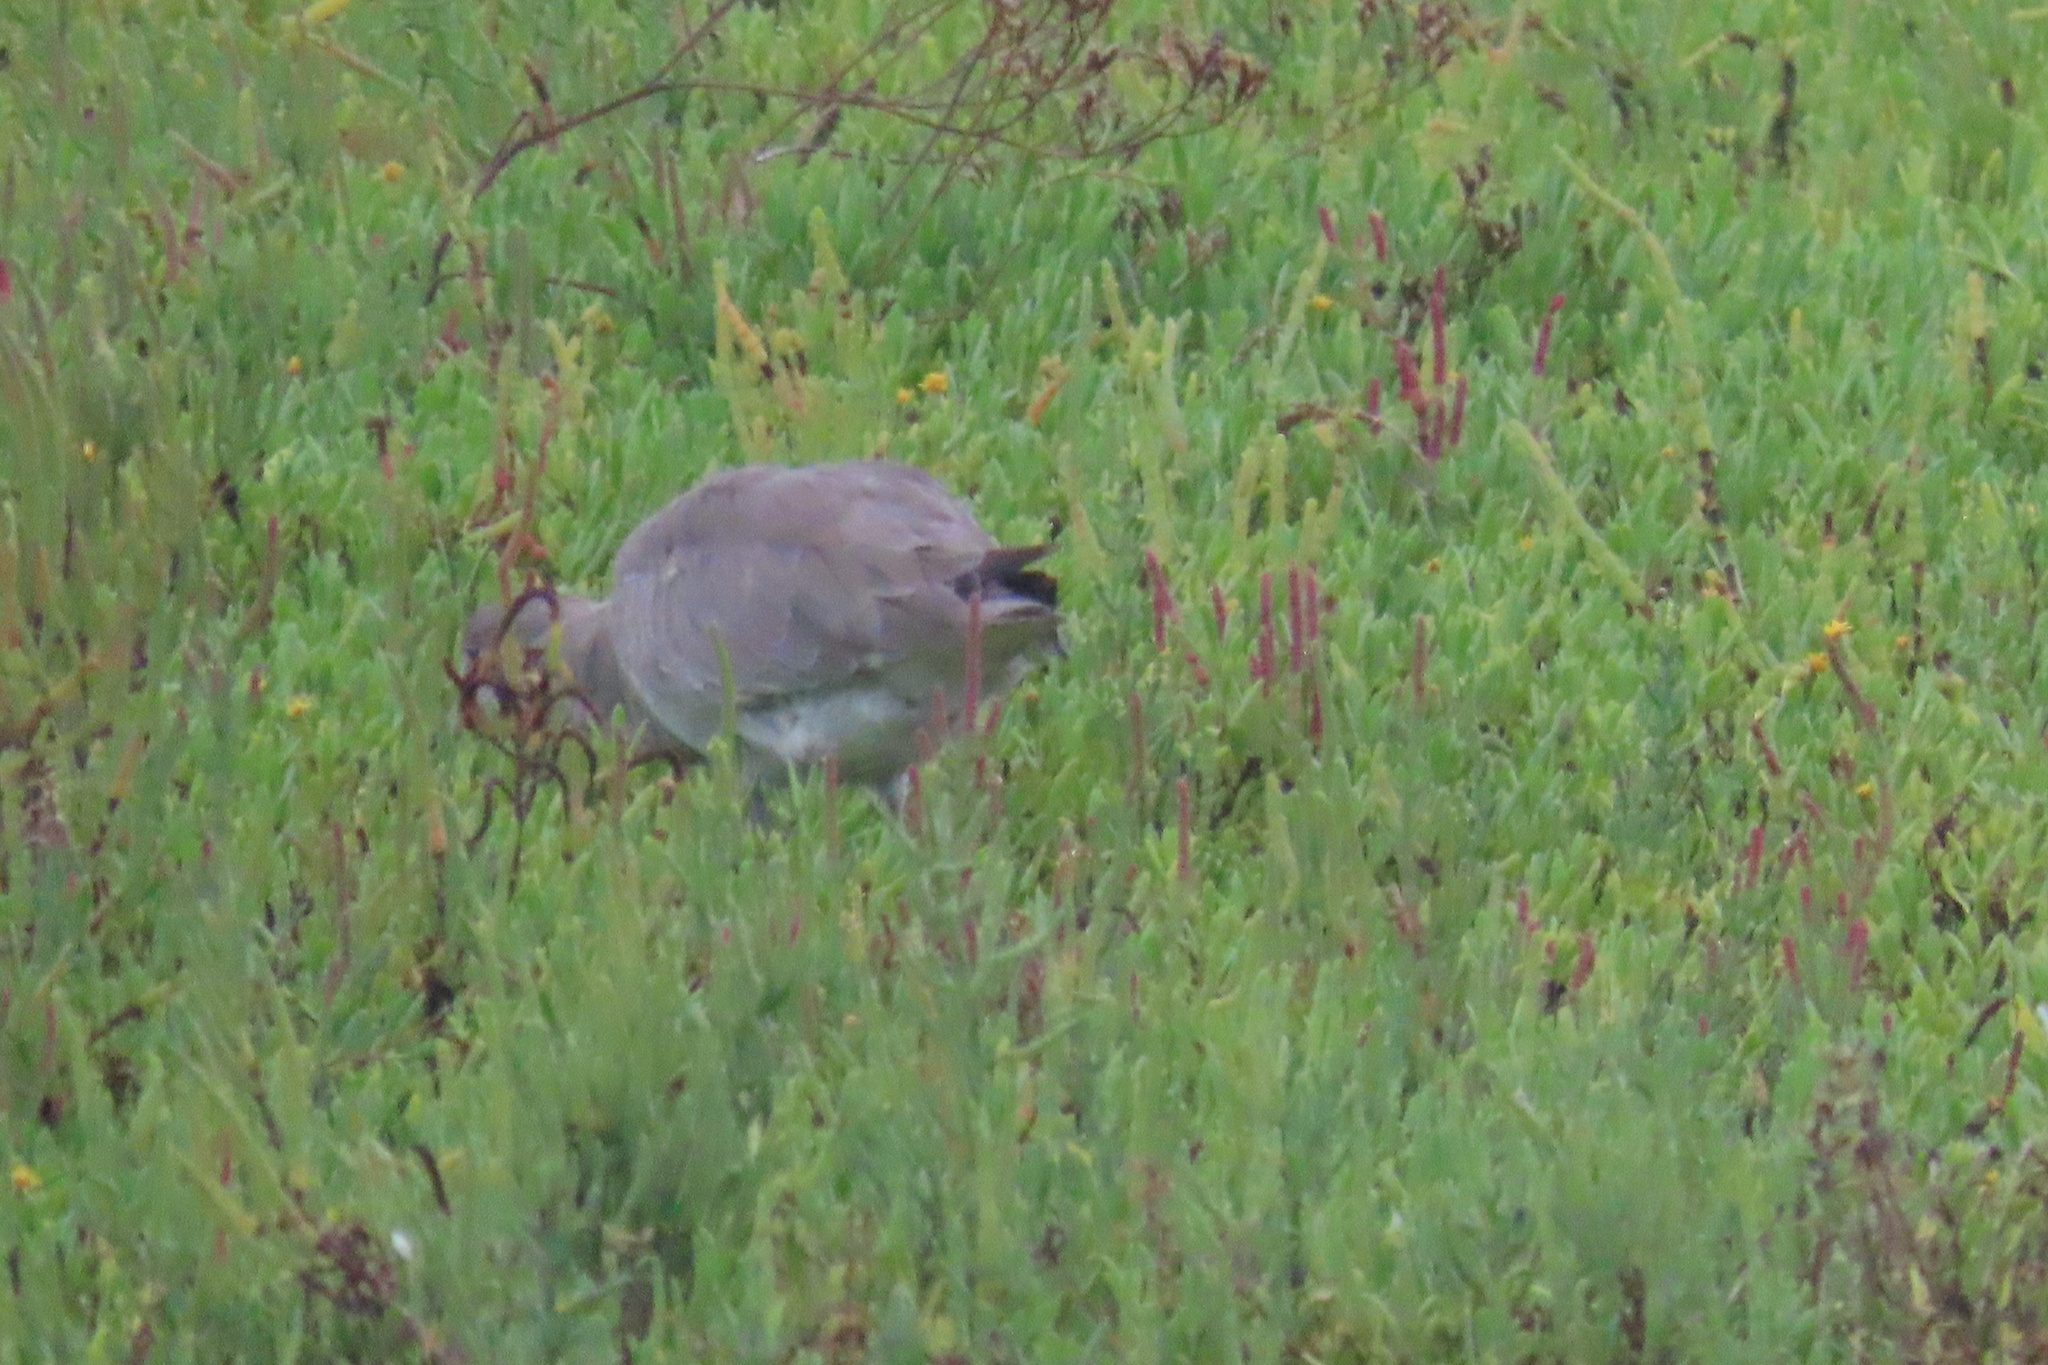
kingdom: Animalia
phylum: Chordata
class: Aves
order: Charadriiformes
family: Scolopacidae
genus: Tringa
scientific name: Tringa semipalmata
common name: Willet
